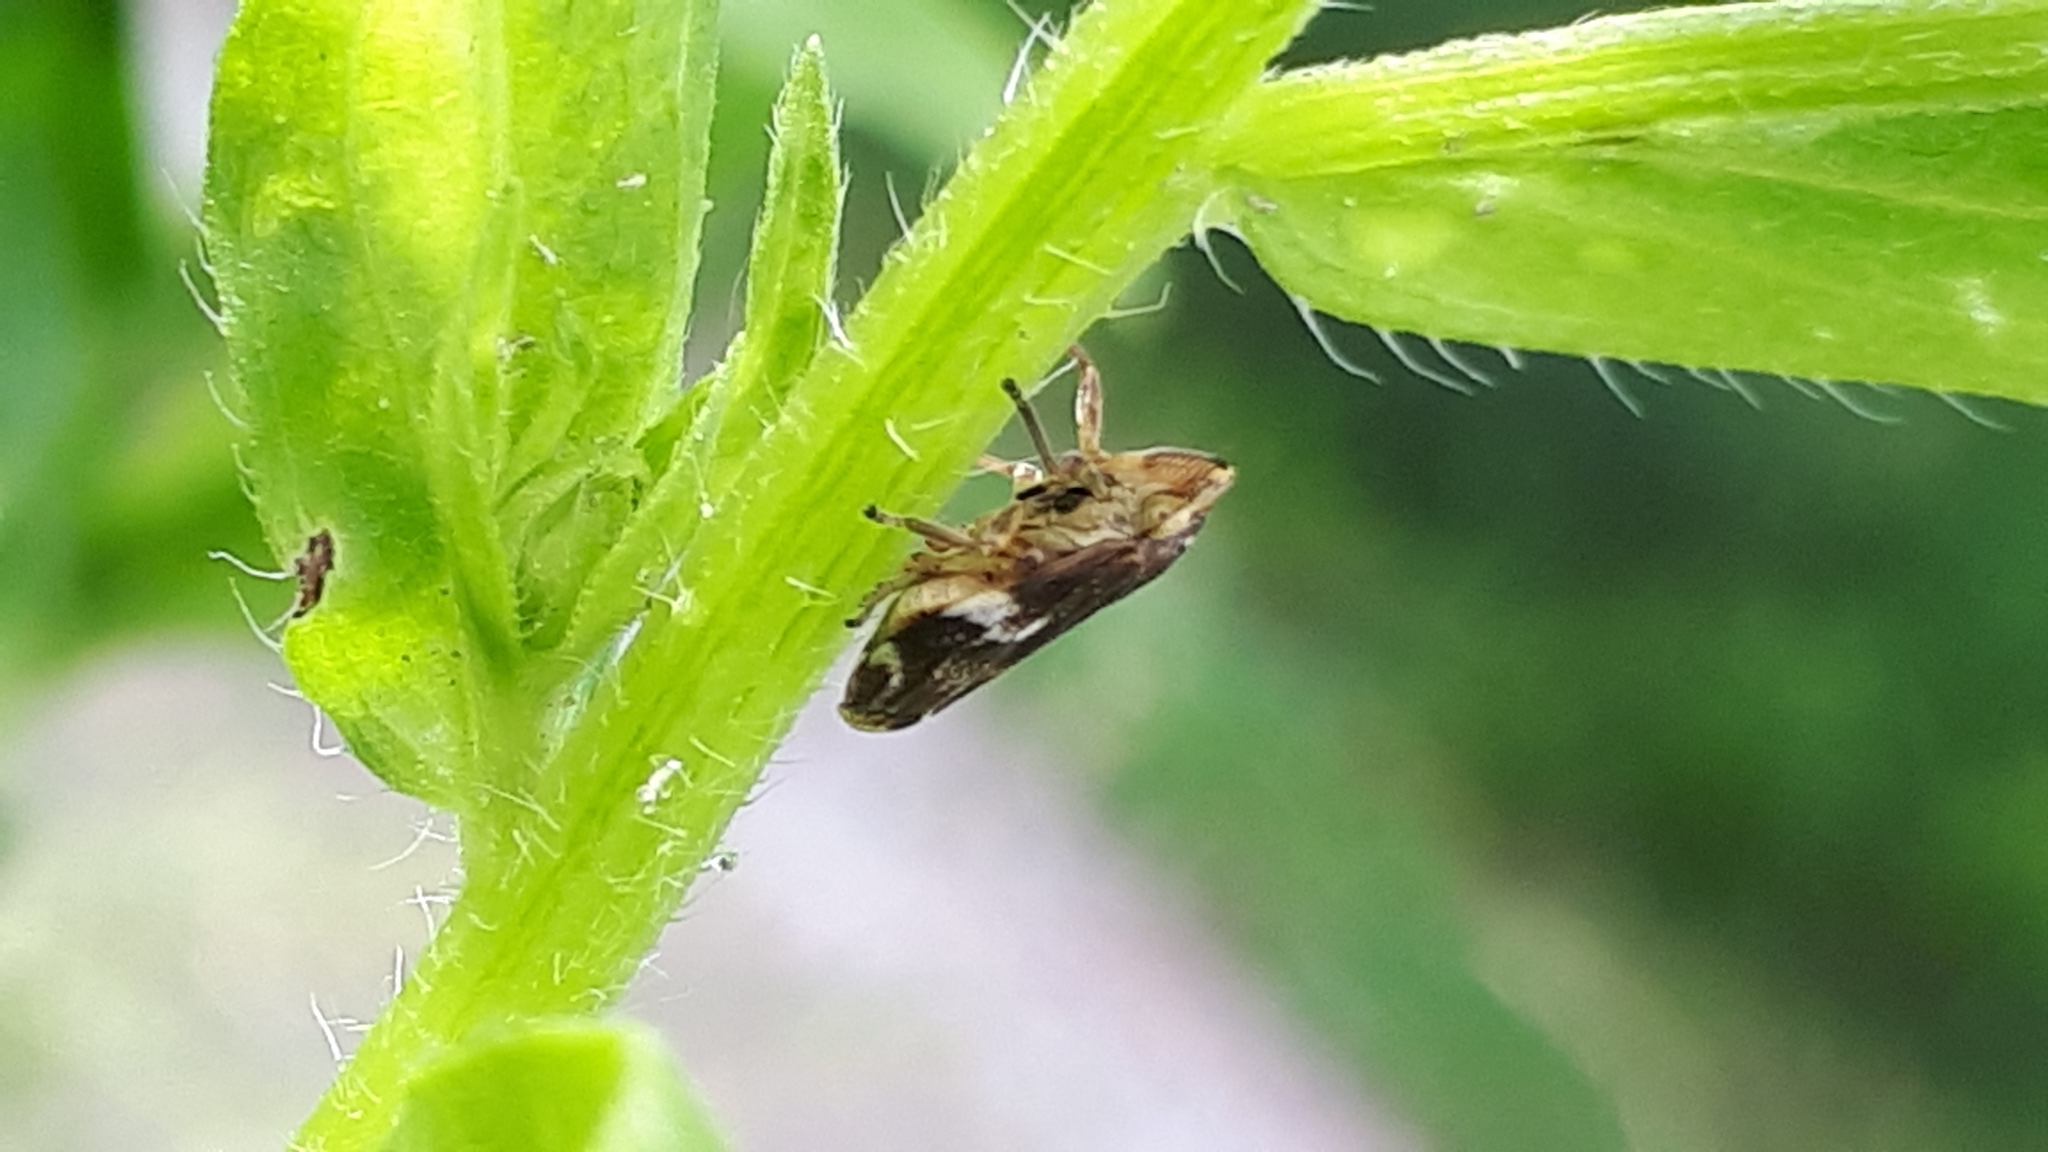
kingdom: Animalia
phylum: Arthropoda
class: Insecta
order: Hemiptera
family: Aphrophoridae
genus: Philaenus
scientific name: Philaenus spumarius
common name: Meadow spittlebug
